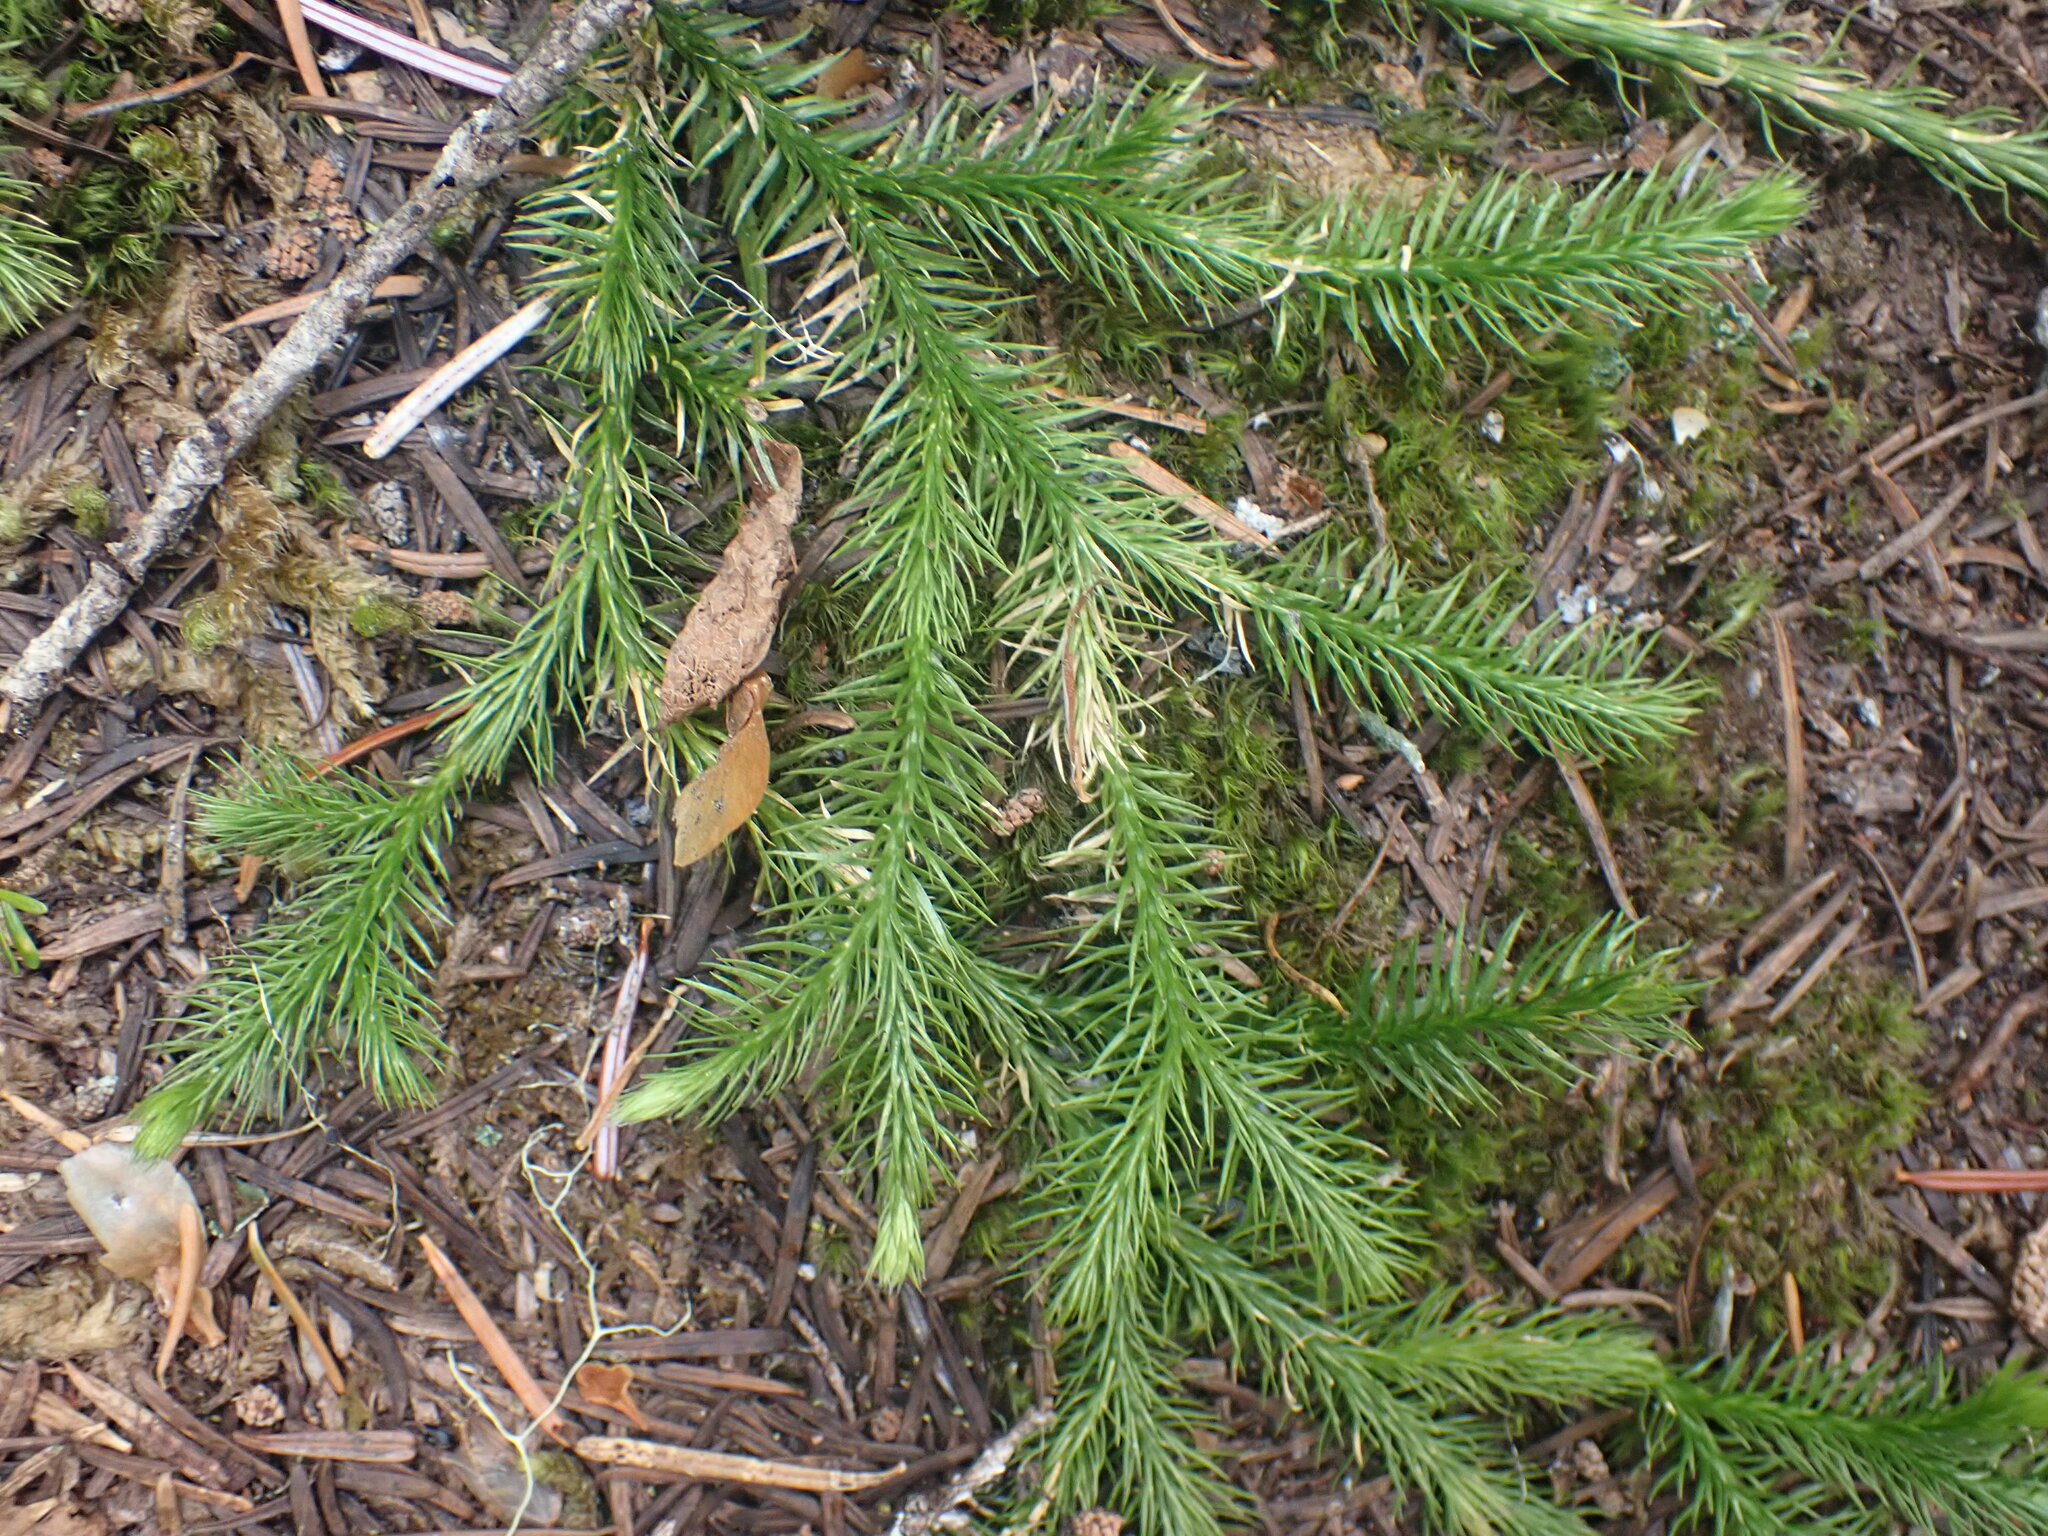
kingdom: Plantae
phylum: Tracheophyta
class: Lycopodiopsida
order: Lycopodiales
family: Lycopodiaceae
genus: Lycopodium
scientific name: Lycopodium clavatum
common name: Stag's-horn clubmoss
